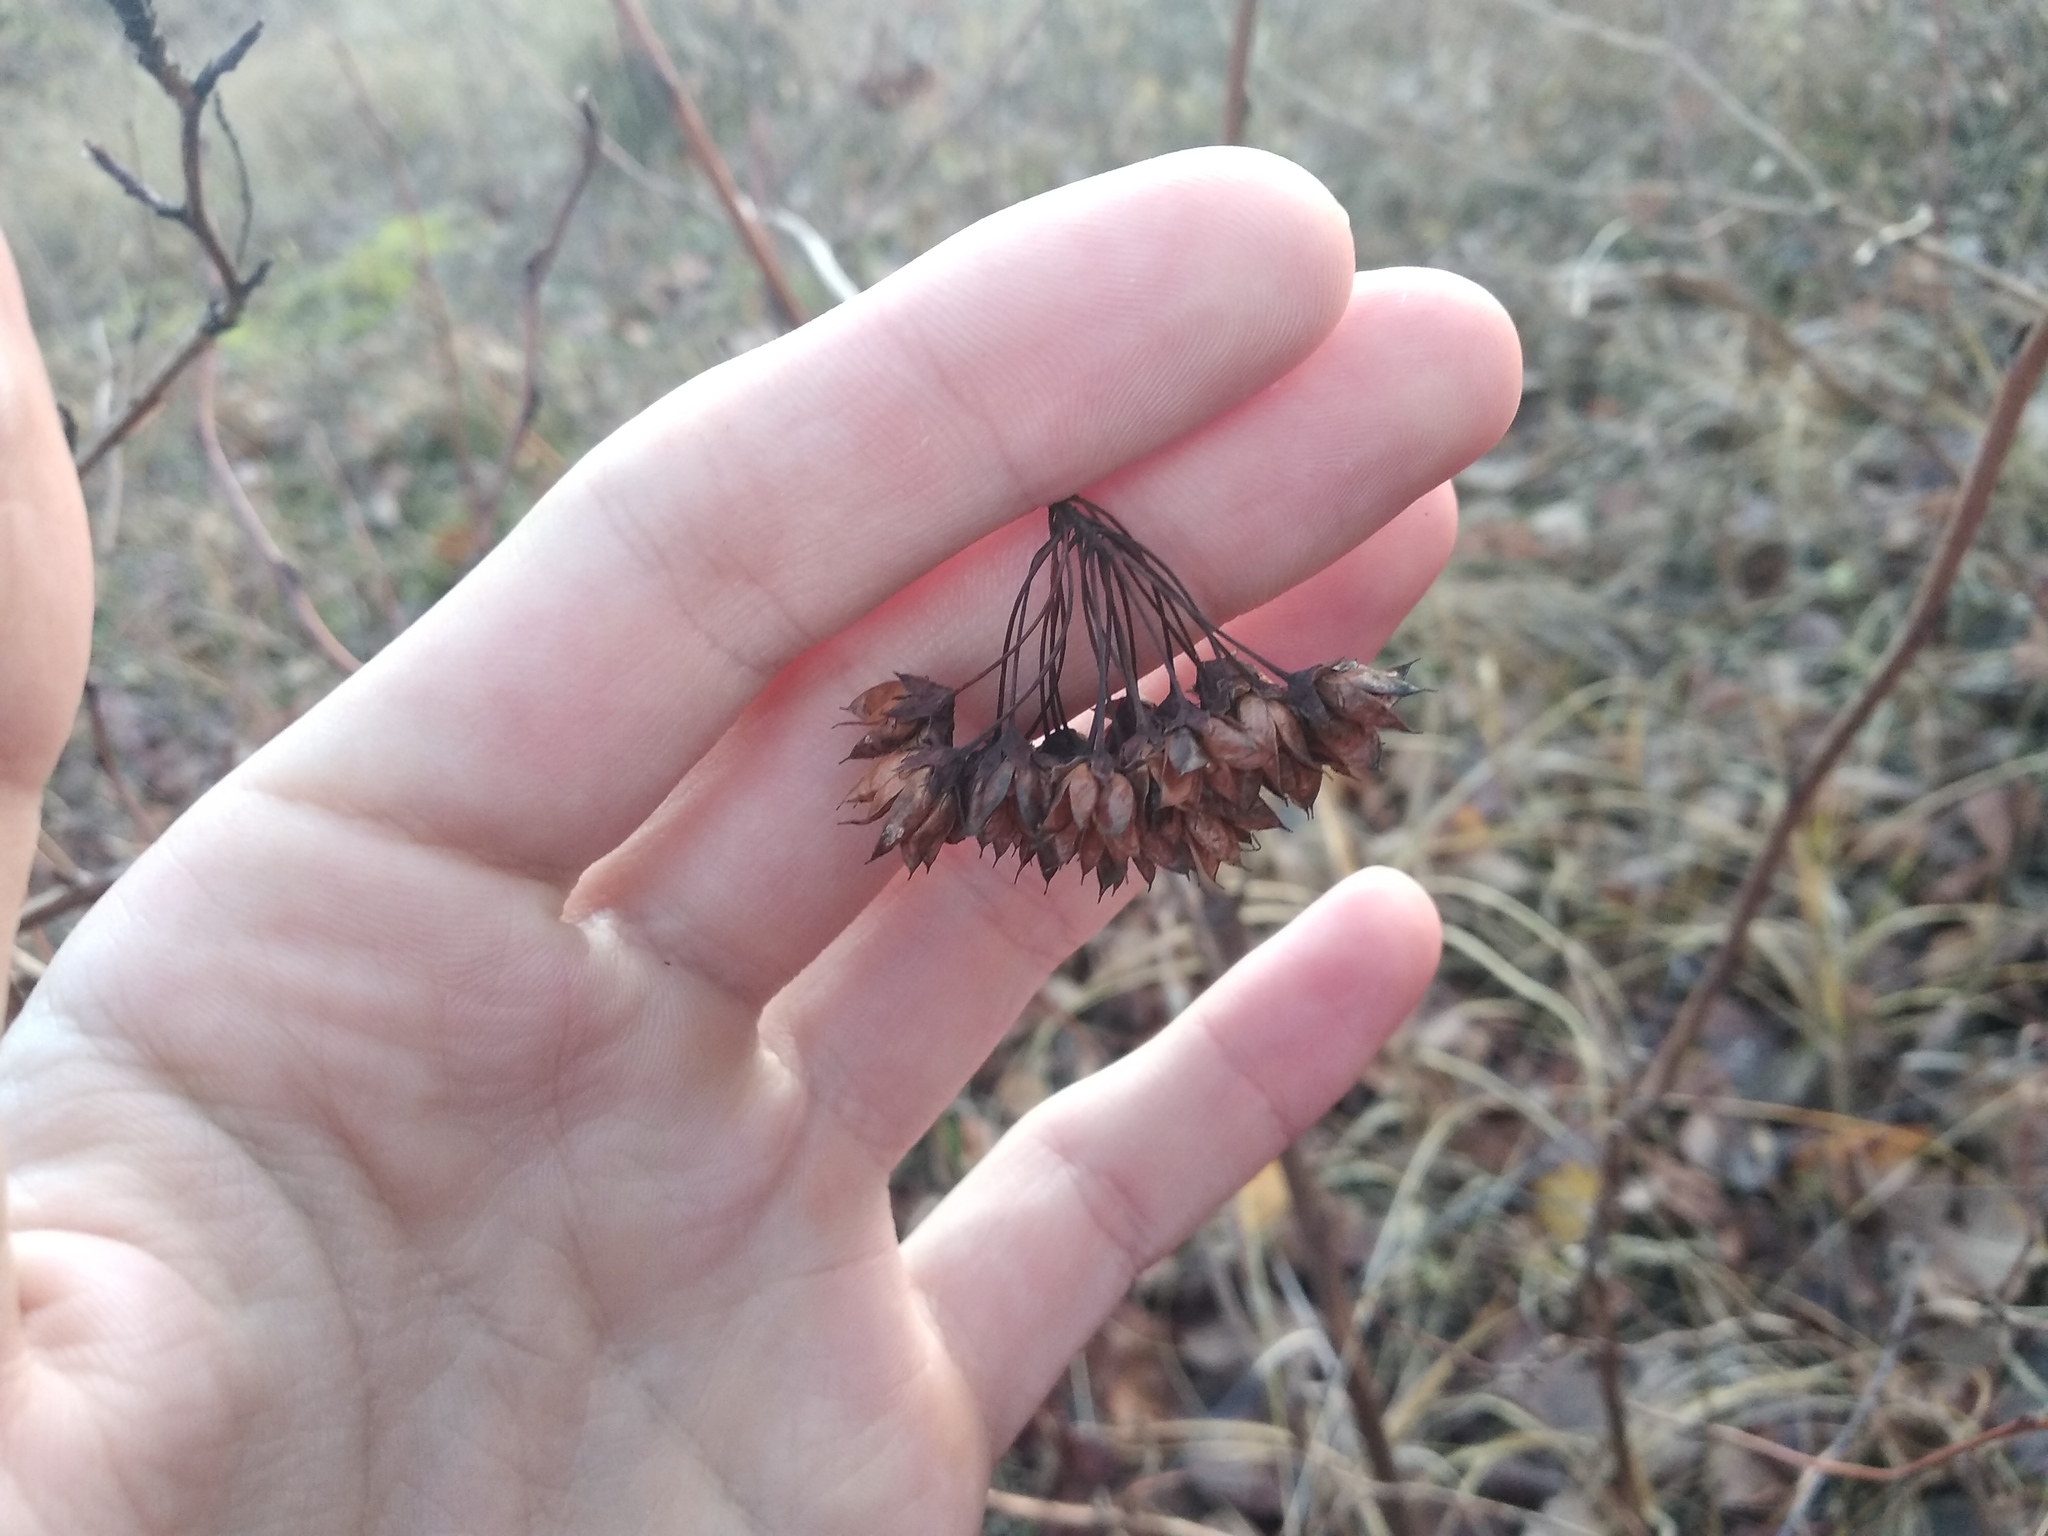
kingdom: Plantae
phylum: Tracheophyta
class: Magnoliopsida
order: Rosales
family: Rosaceae
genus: Physocarpus
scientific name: Physocarpus opulifolius
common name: Ninebark
